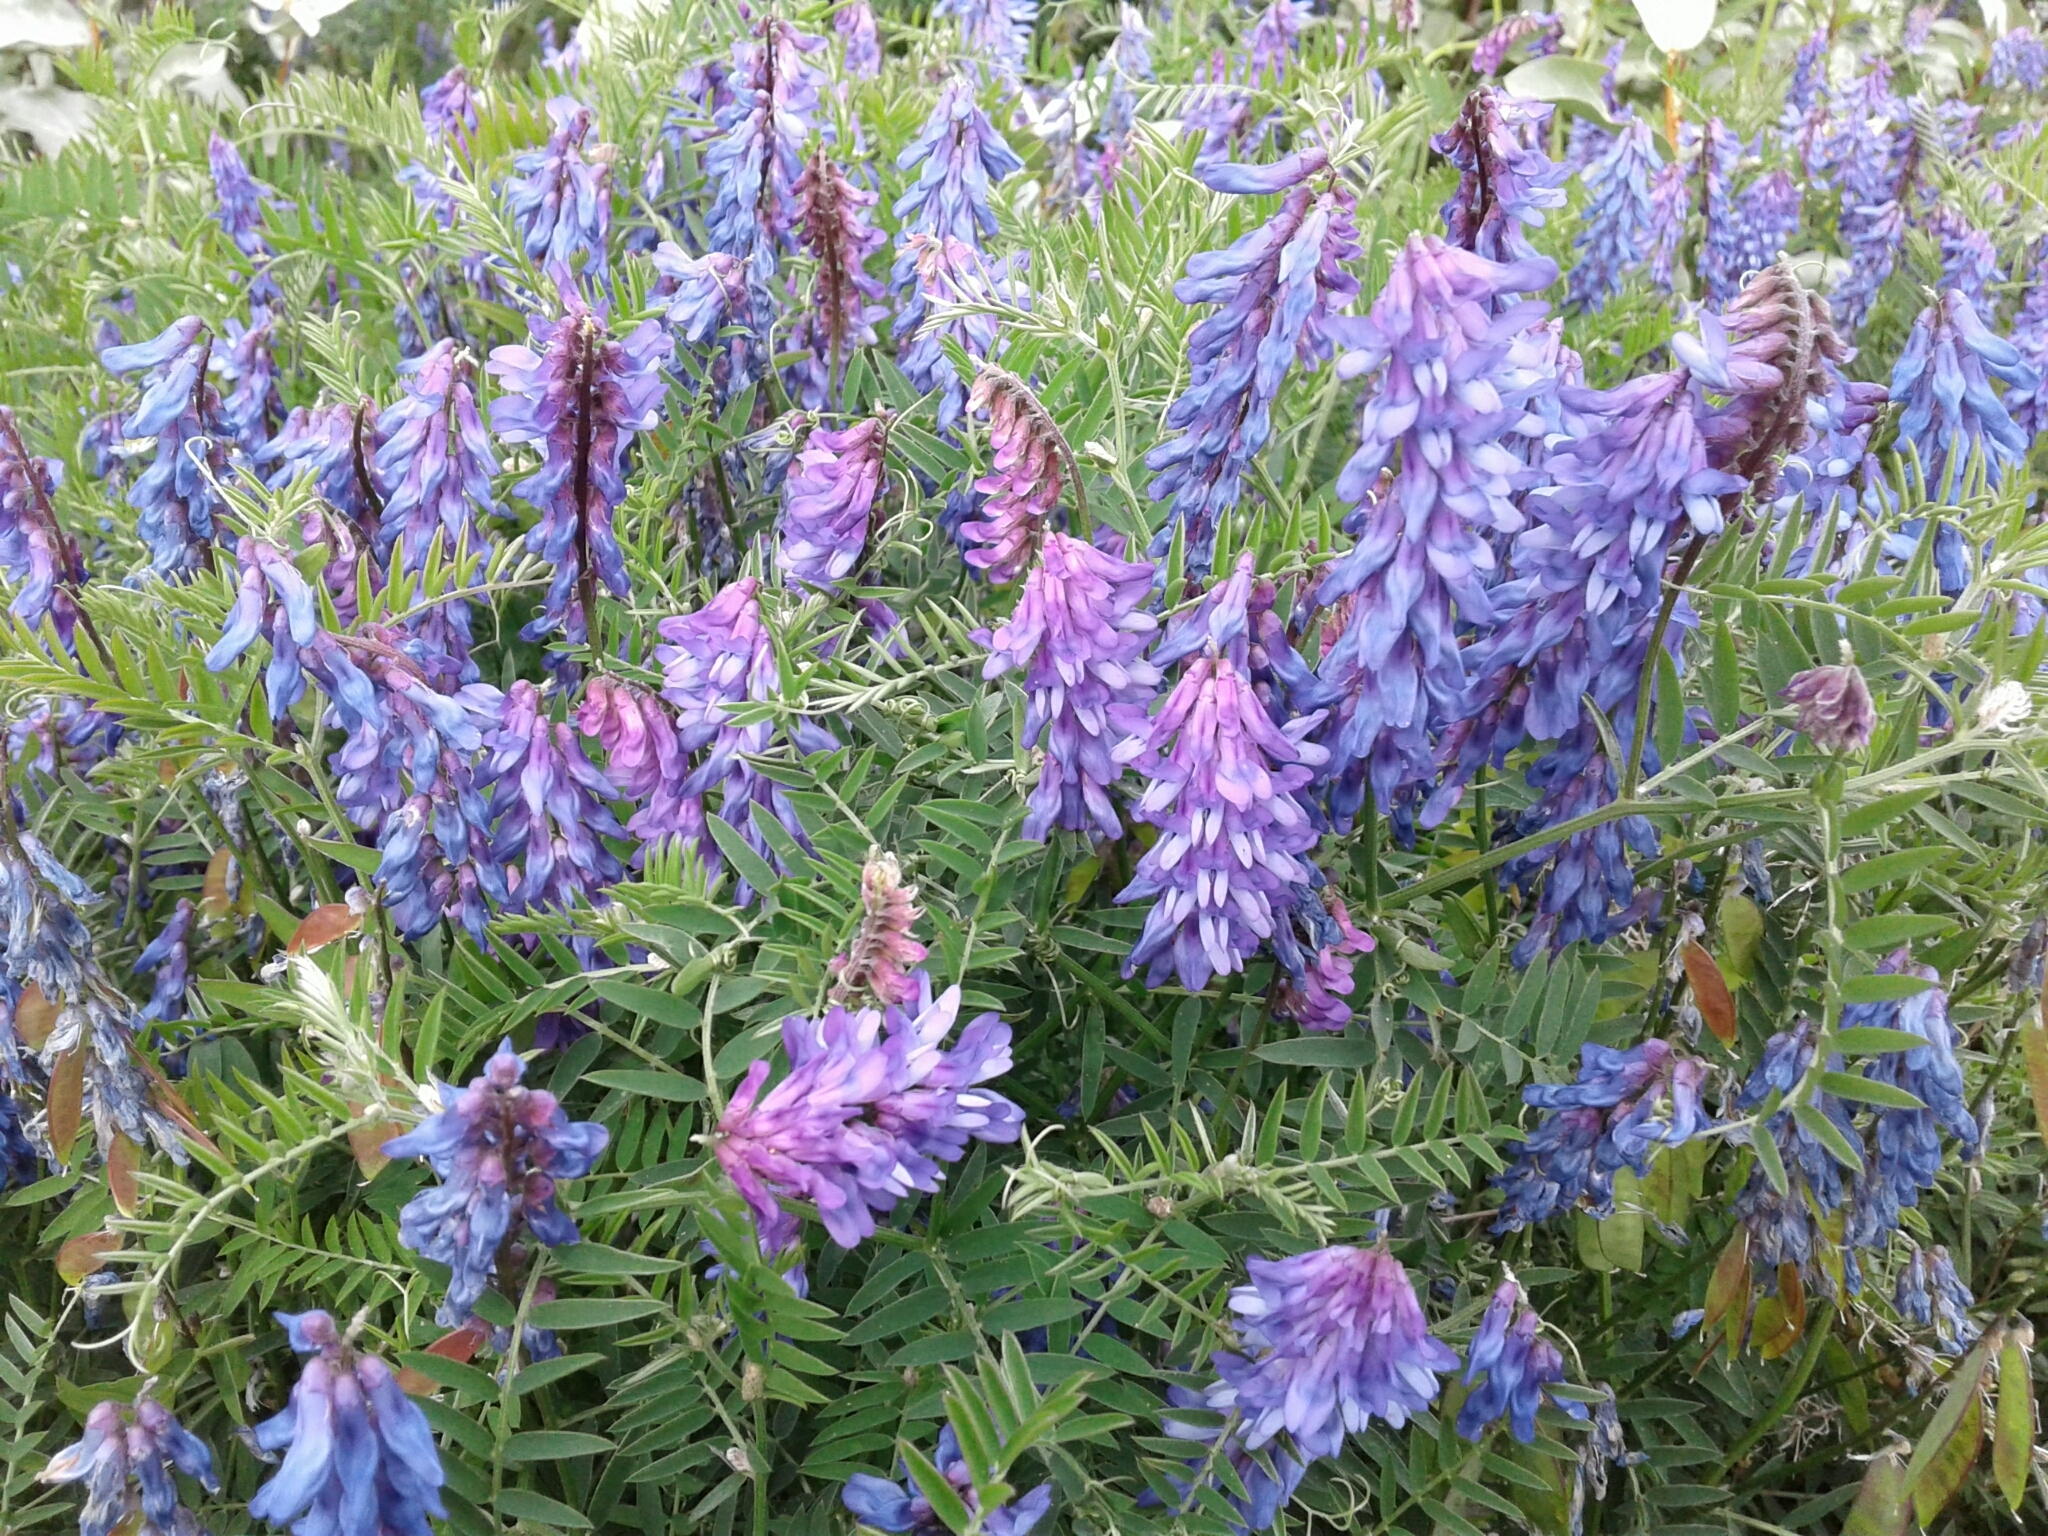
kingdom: Plantae
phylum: Tracheophyta
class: Magnoliopsida
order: Fabales
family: Fabaceae
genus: Vicia
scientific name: Vicia cracca
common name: Bird vetch
